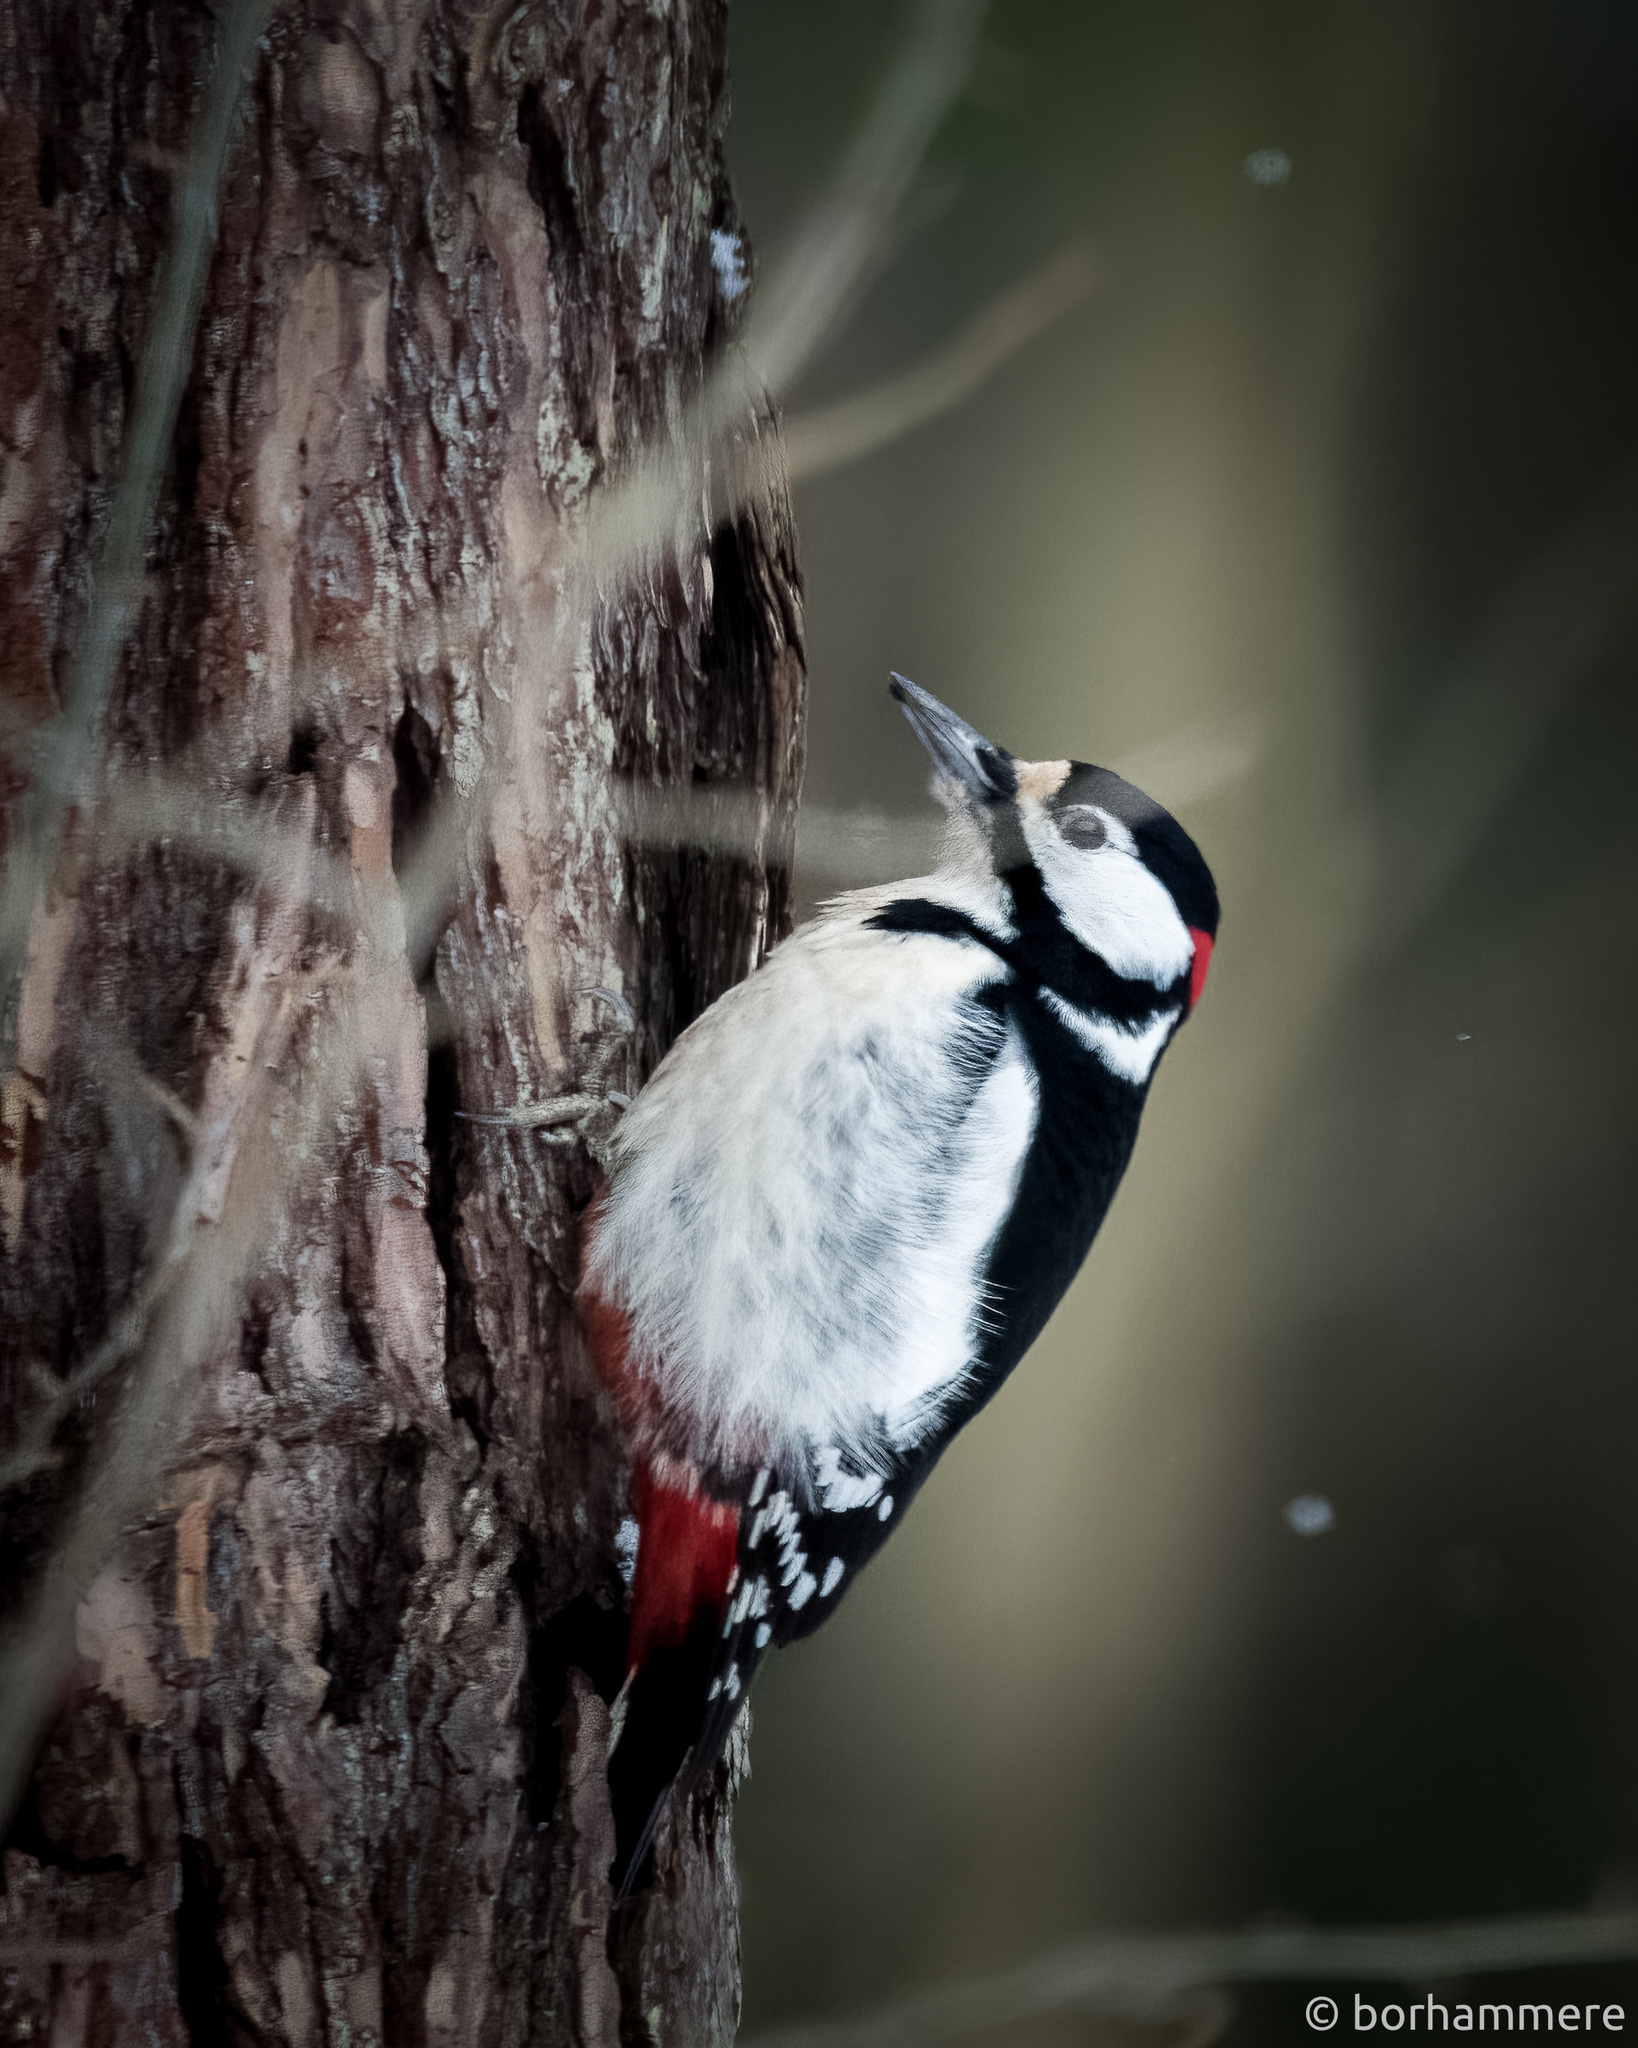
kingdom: Animalia
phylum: Chordata
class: Aves
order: Piciformes
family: Picidae
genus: Dendrocopos
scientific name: Dendrocopos major
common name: Great spotted woodpecker
